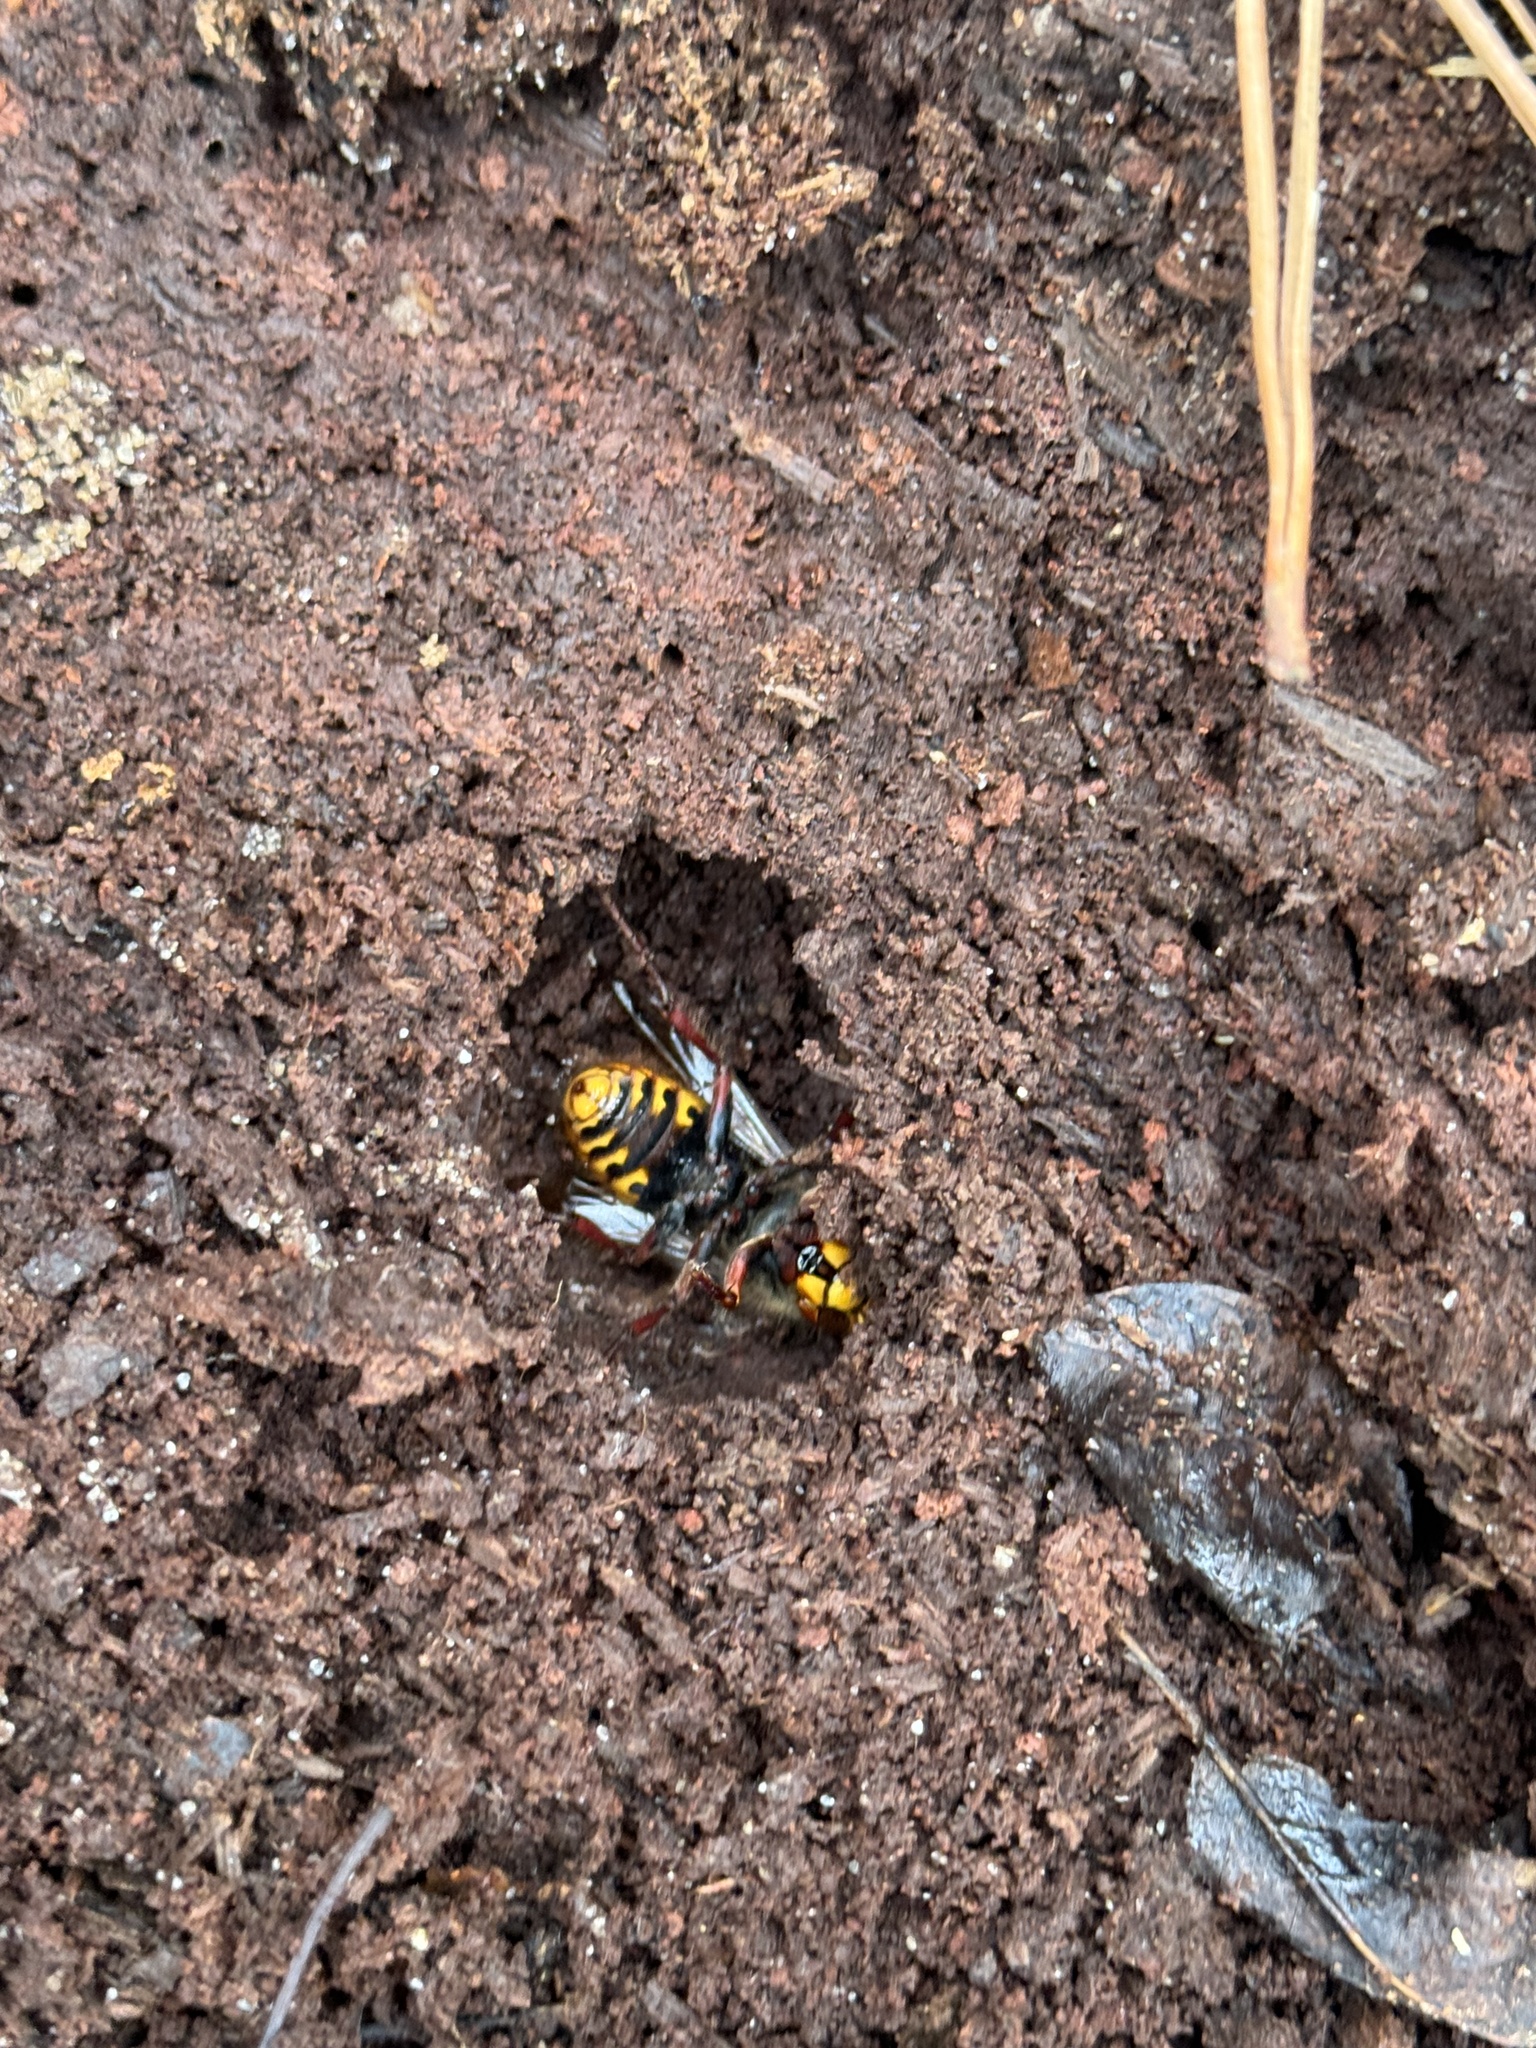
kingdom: Animalia
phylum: Arthropoda
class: Insecta
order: Hymenoptera
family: Vespidae
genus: Vespa
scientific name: Vespa crabro
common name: Hornet
